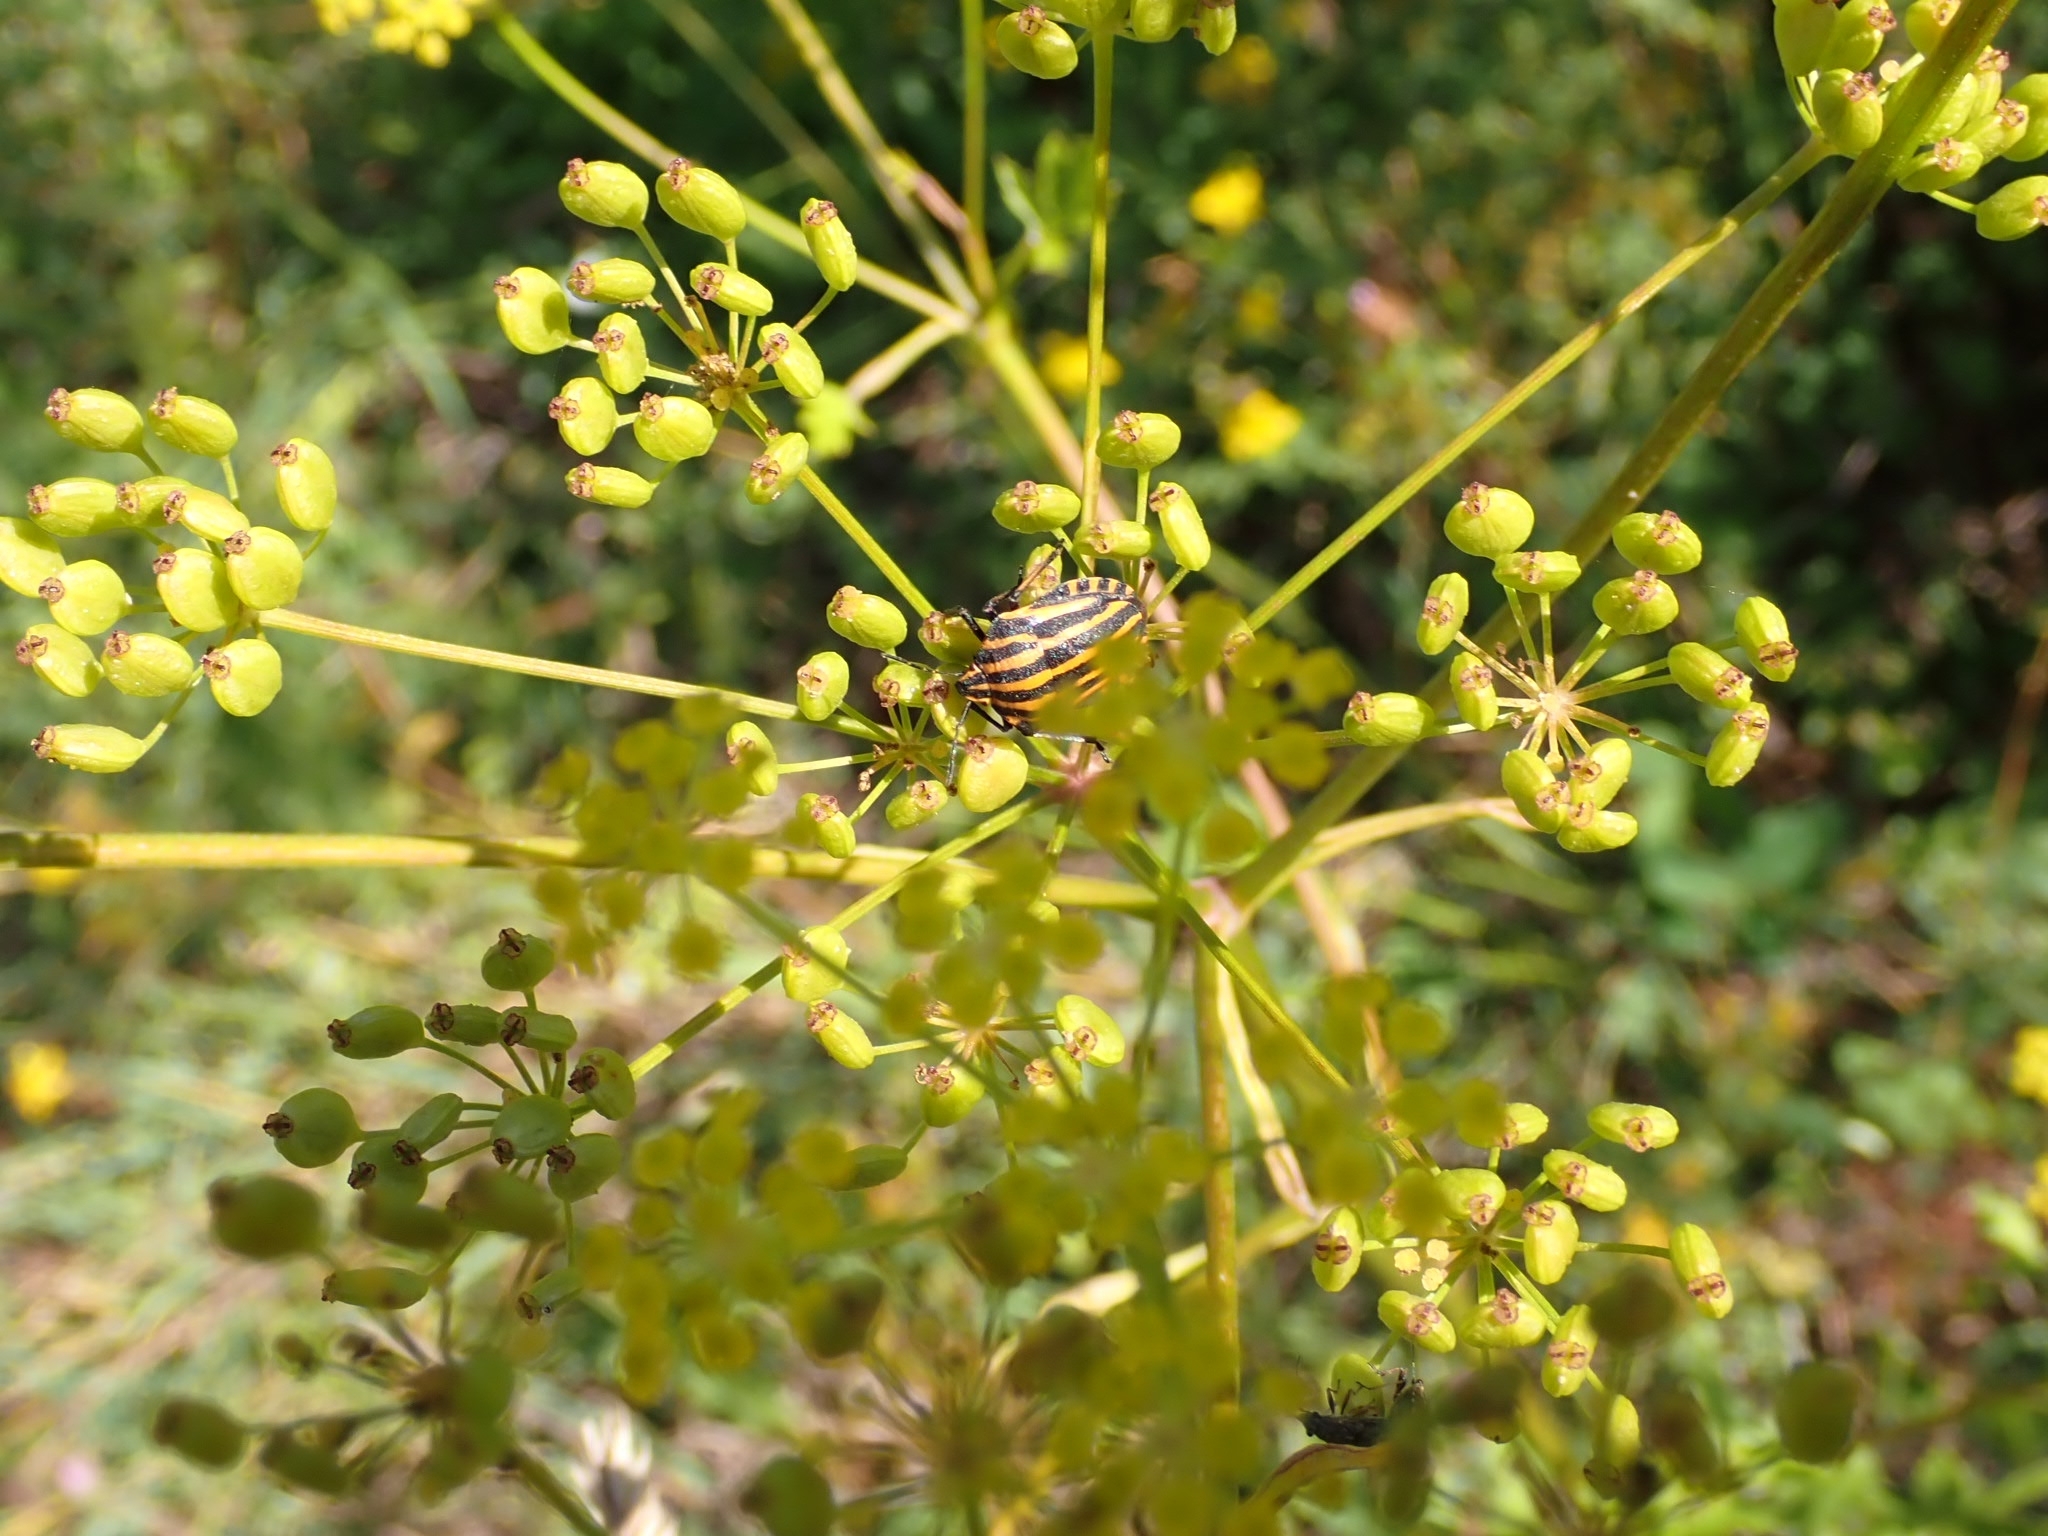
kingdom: Animalia
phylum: Arthropoda
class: Insecta
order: Hemiptera
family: Pentatomidae
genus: Graphosoma
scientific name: Graphosoma italicum
